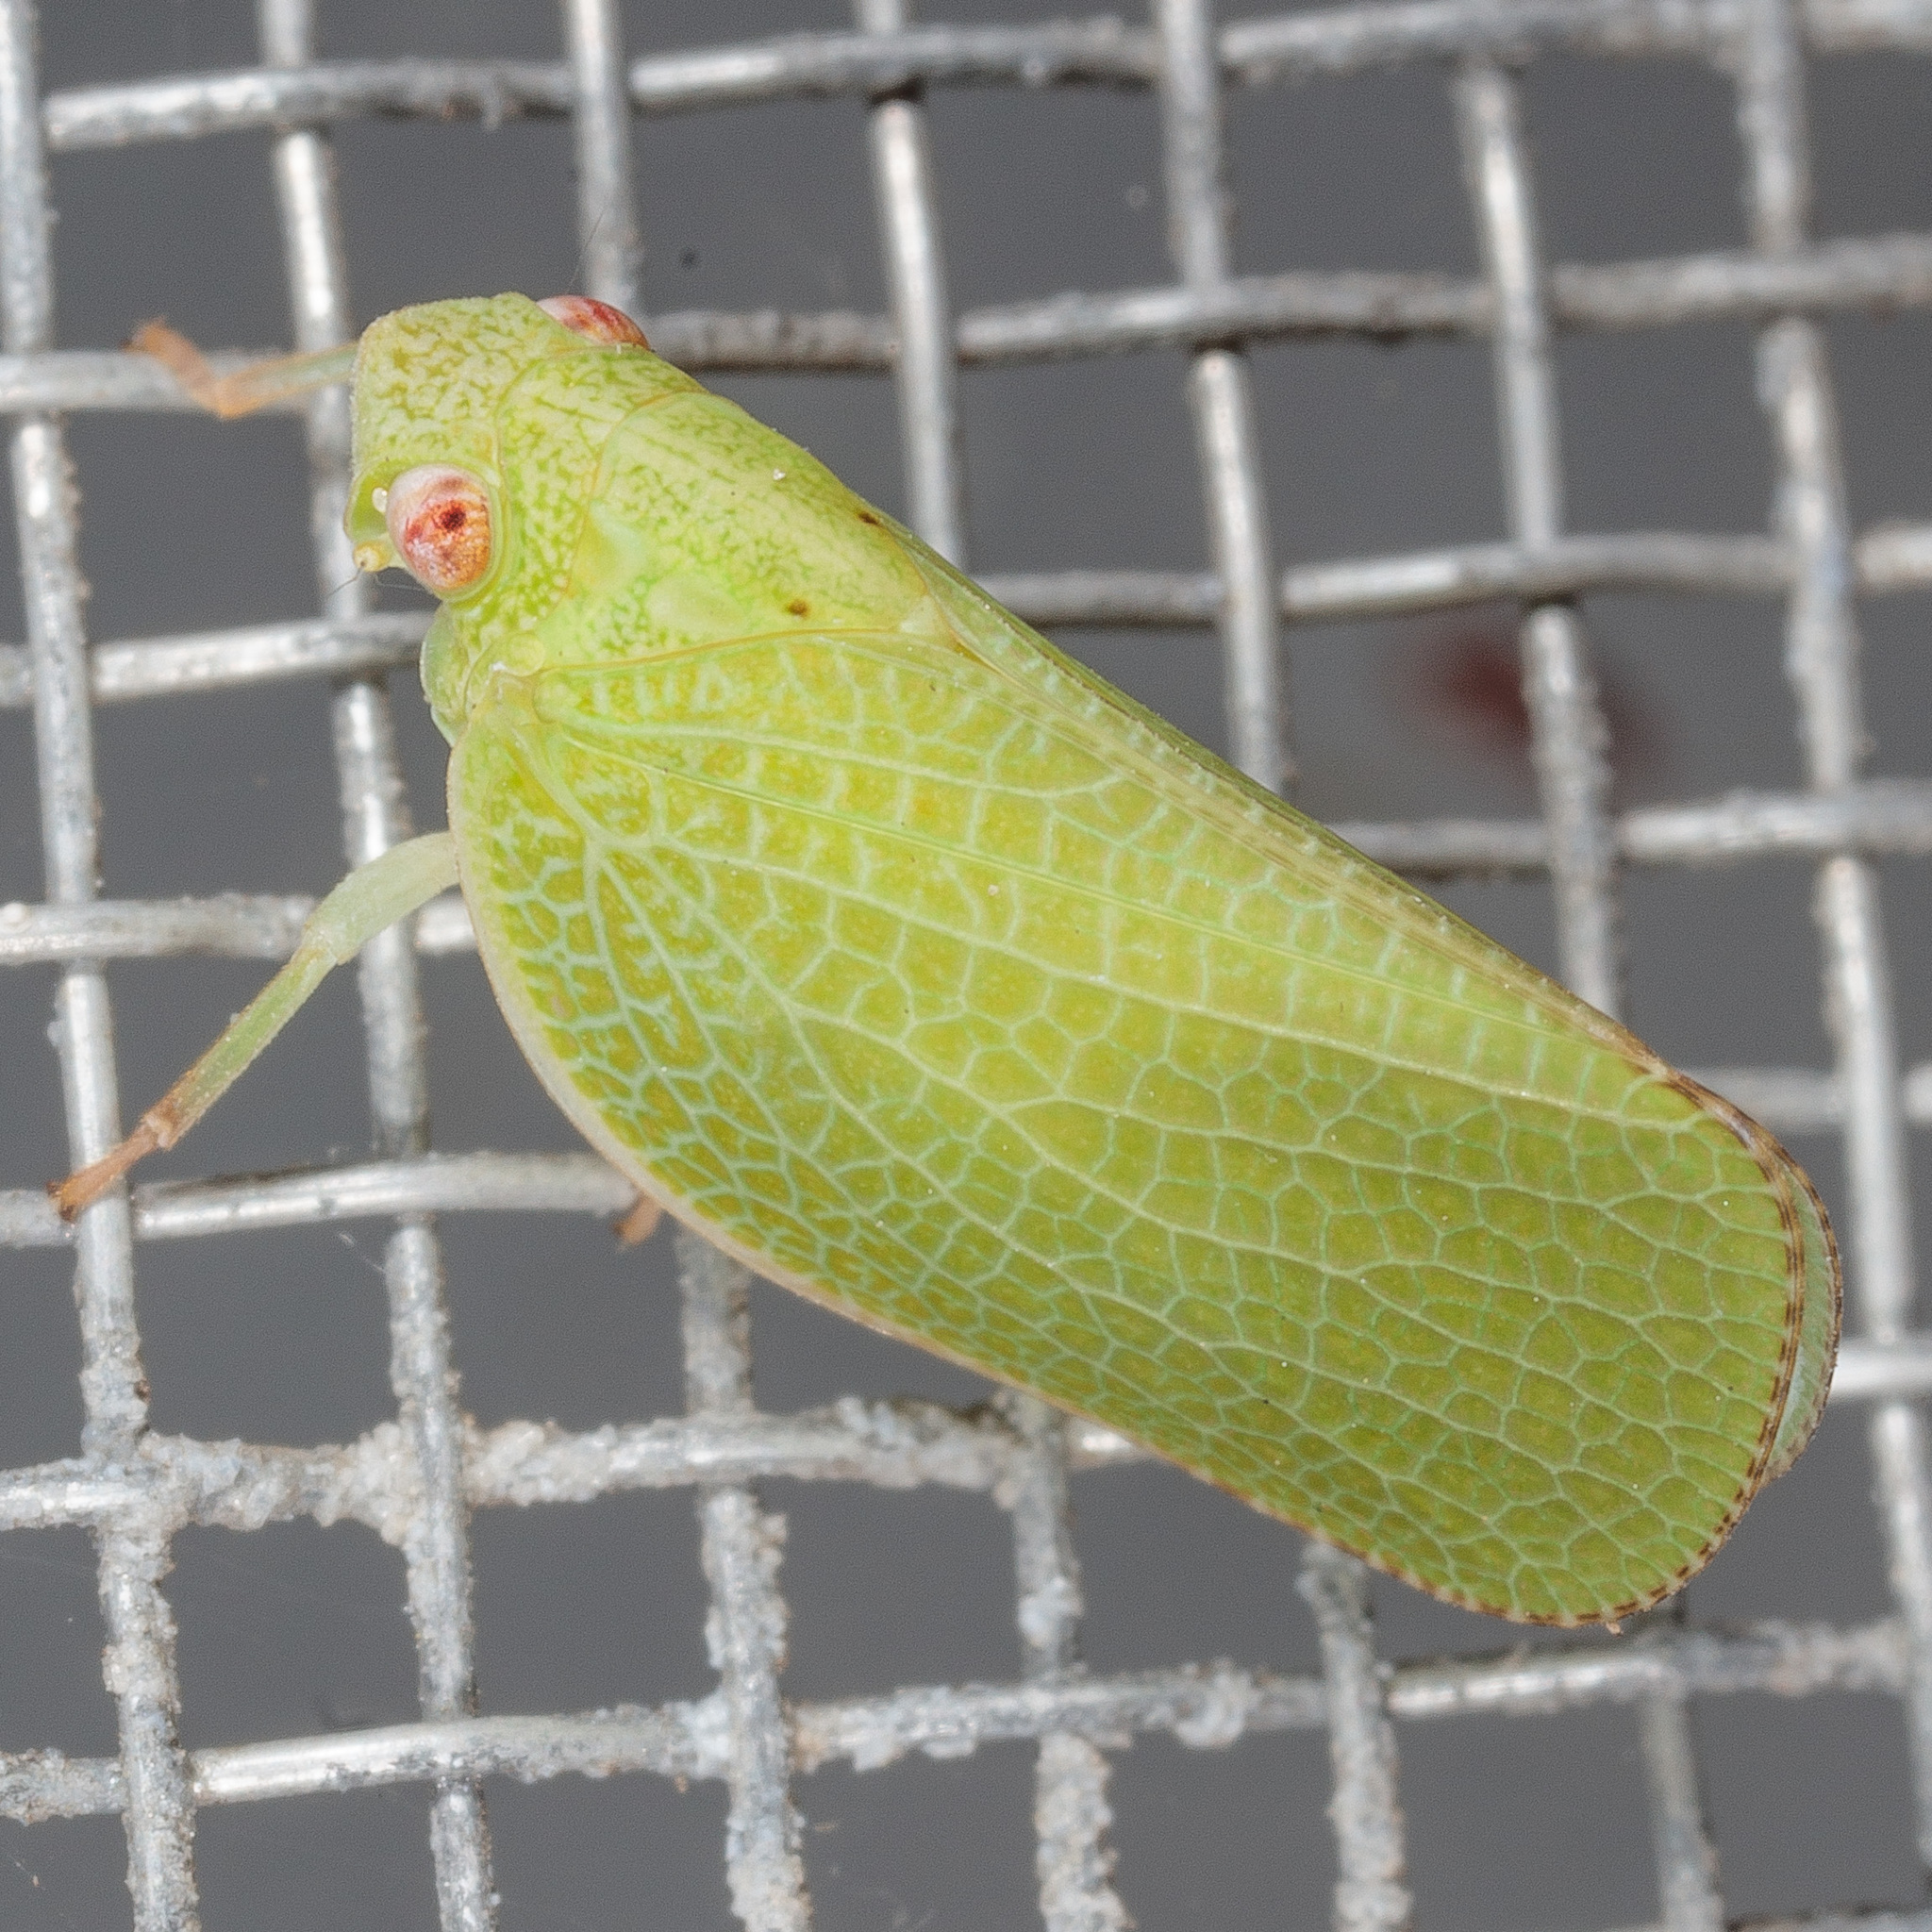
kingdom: Animalia
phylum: Arthropoda
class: Insecta
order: Hemiptera
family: Acanaloniidae
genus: Acanalonia
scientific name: Acanalonia conica
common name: Green cone-headed planthopper
